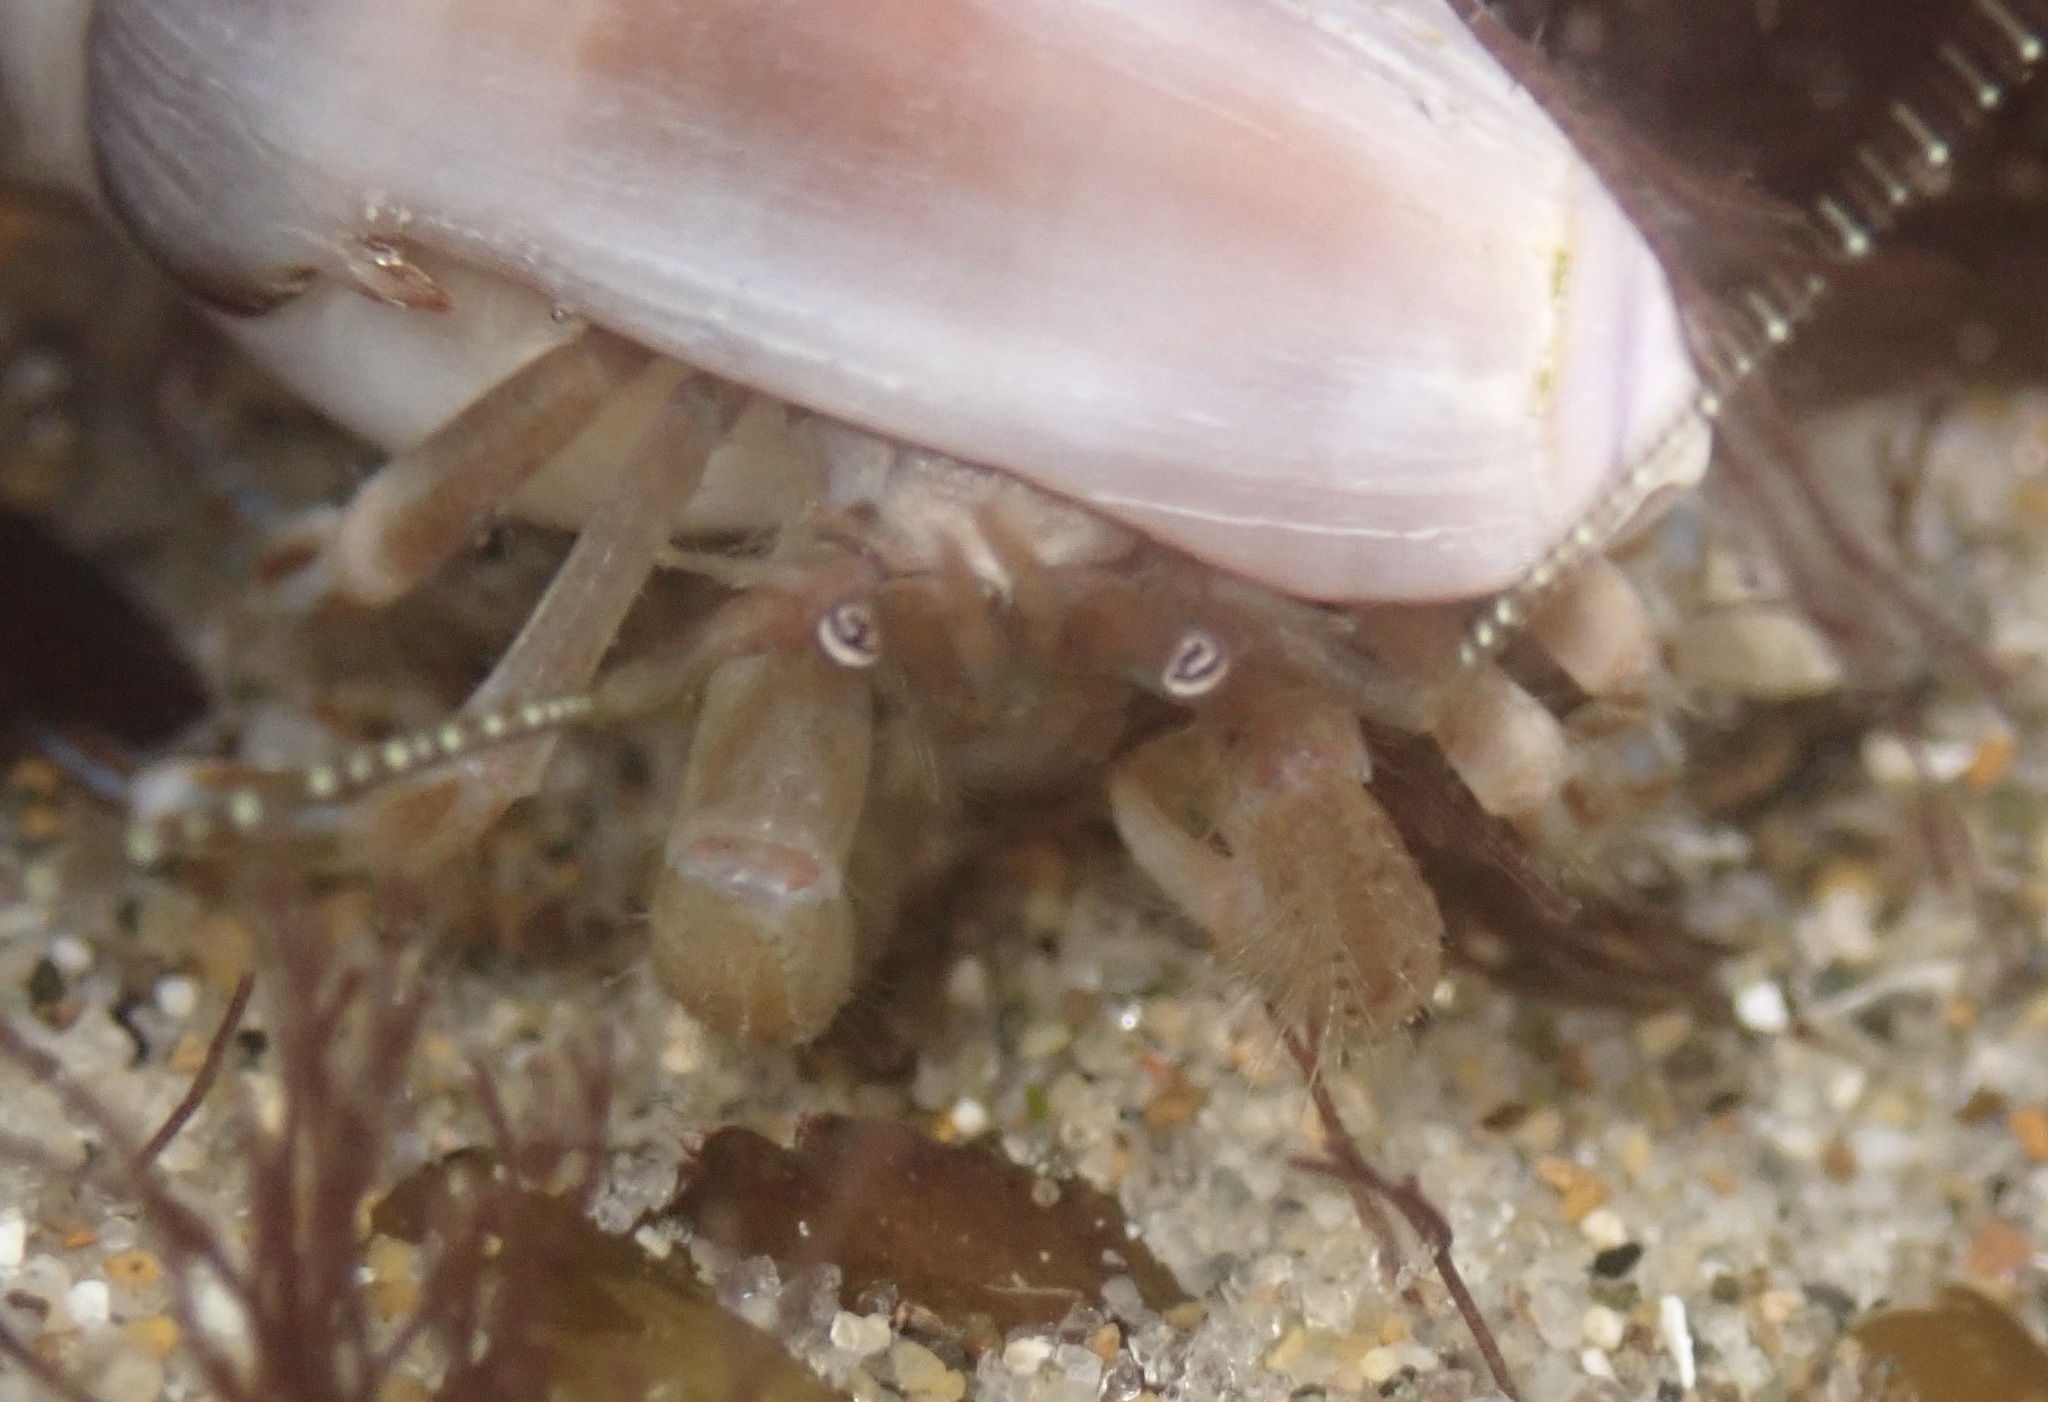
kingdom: Animalia
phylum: Arthropoda
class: Malacostraca
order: Decapoda
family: Paguridae
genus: Pagurus
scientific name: Pagurus venturensis
